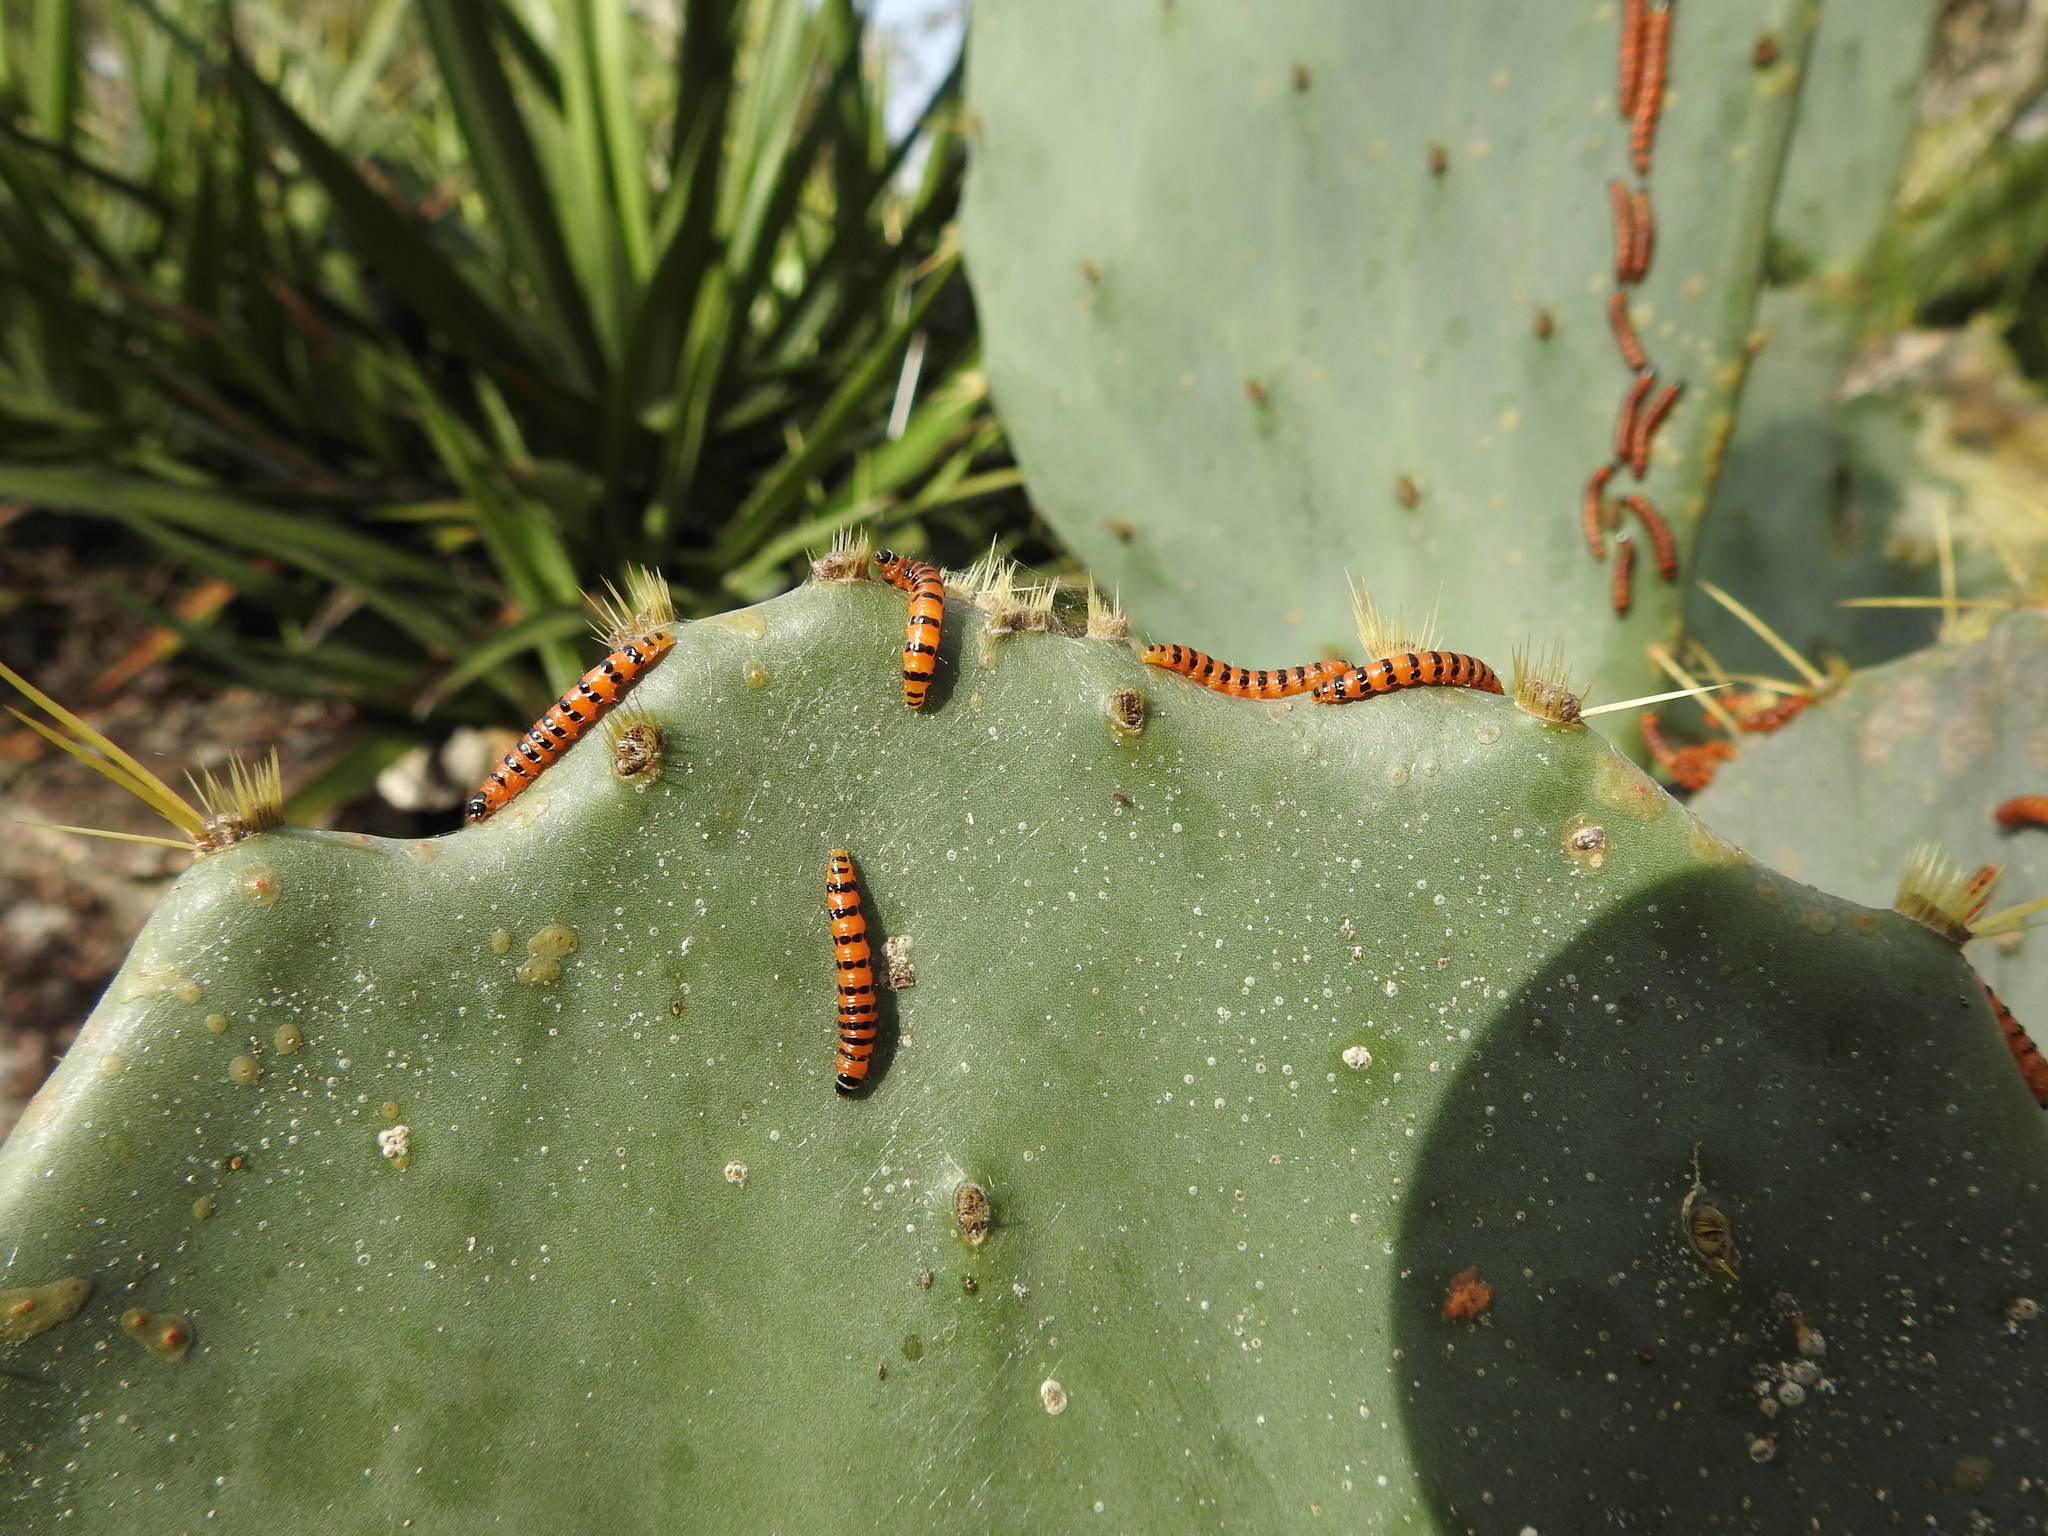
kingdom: Animalia
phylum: Arthropoda
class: Insecta
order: Lepidoptera
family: Pyralidae
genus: Cactoblastis
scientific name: Cactoblastis cactorum
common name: Cactus moth
